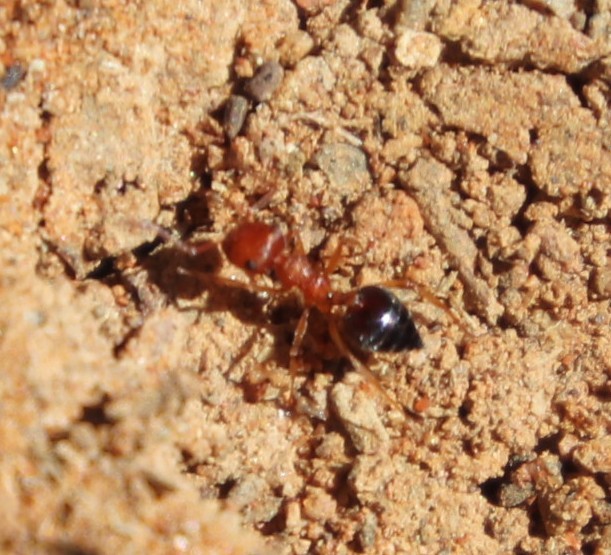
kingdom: Animalia
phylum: Arthropoda
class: Insecta
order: Hymenoptera
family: Formicidae
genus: Crematogaster
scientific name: Crematogaster melanogaster
